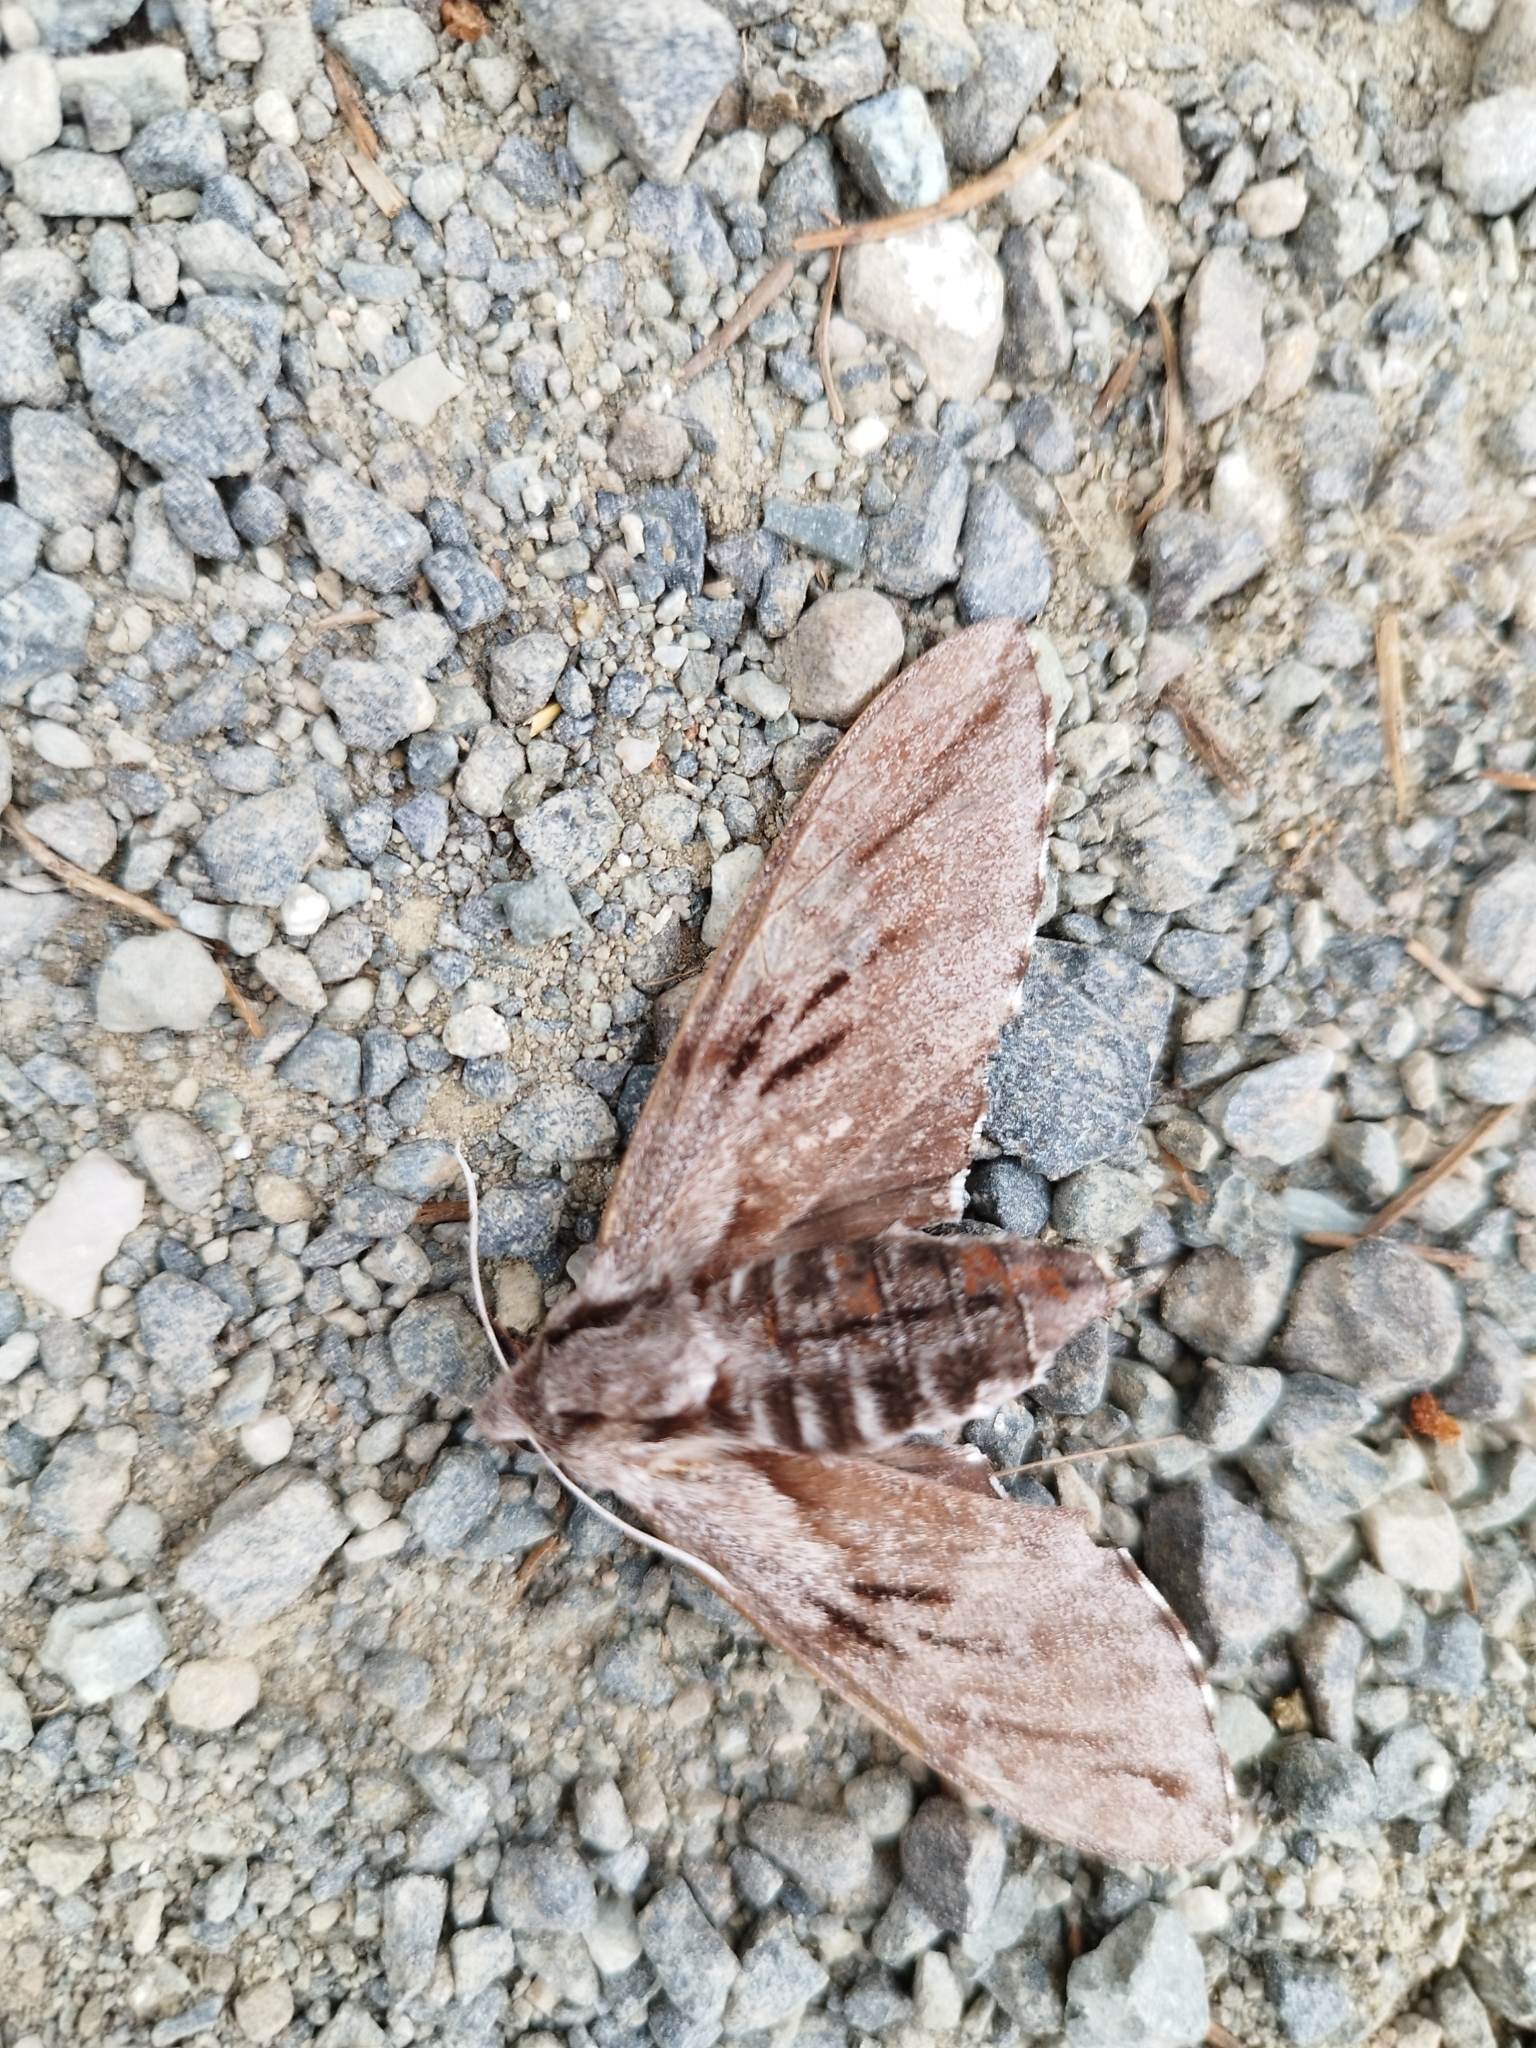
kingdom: Animalia
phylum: Arthropoda
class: Insecta
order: Lepidoptera
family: Sphingidae
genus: Sphinx
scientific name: Sphinx pinastri
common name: Pine hawk-moth
